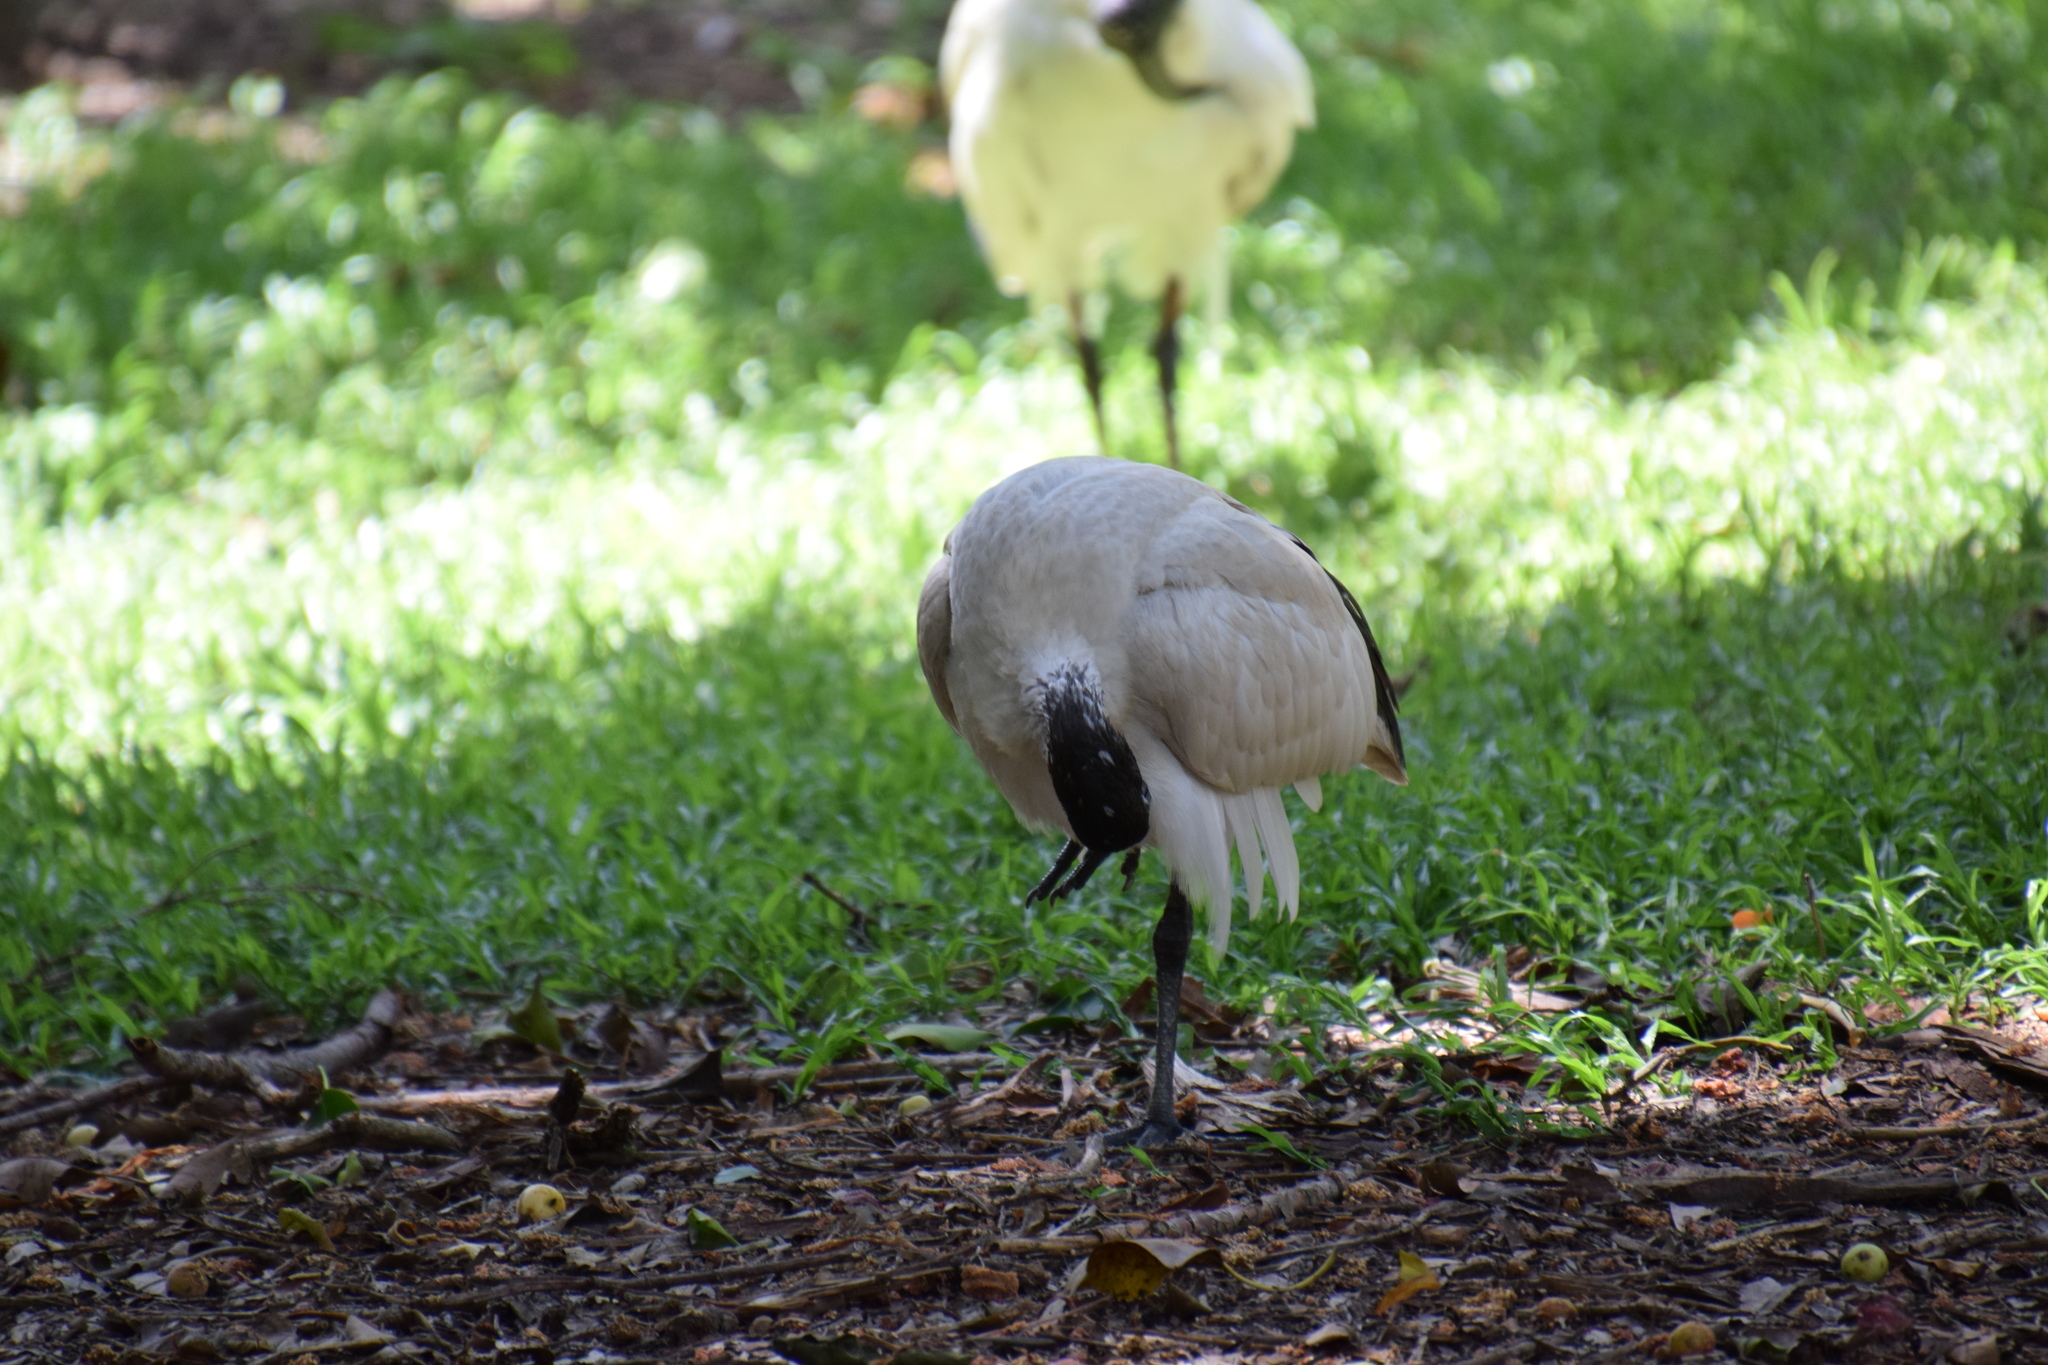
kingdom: Animalia
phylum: Chordata
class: Aves
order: Pelecaniformes
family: Threskiornithidae
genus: Threskiornis
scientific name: Threskiornis molucca
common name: Australian white ibis
